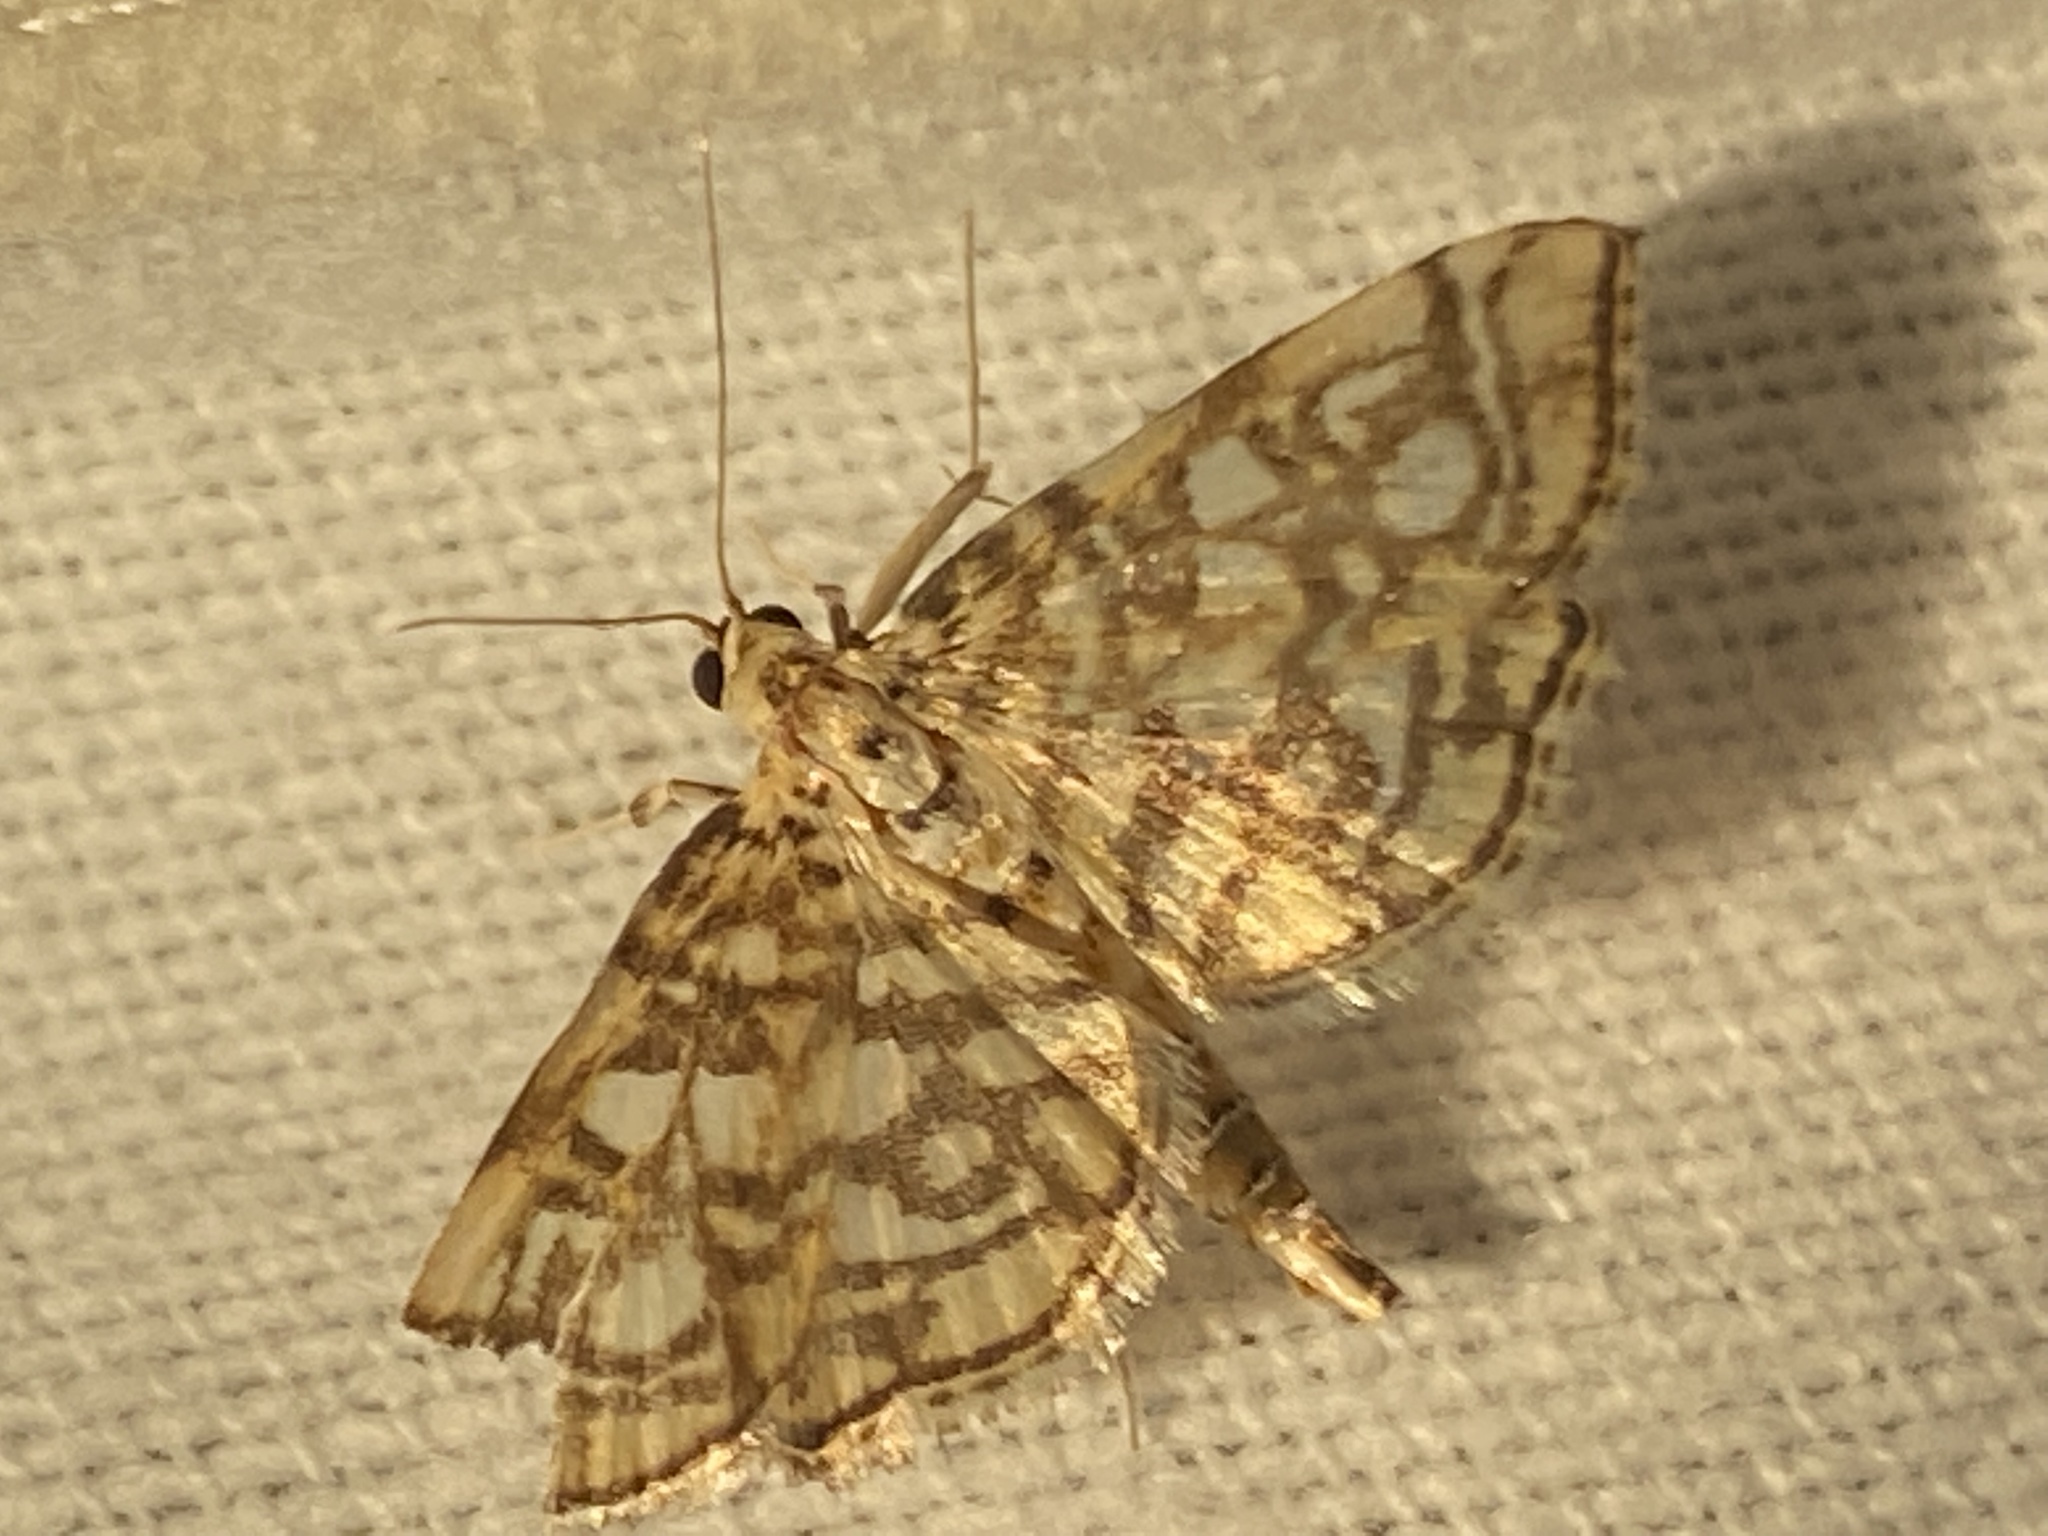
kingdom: Animalia
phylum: Arthropoda
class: Insecta
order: Lepidoptera
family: Crambidae
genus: Lygropia
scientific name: Lygropia rivulalis
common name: Bog lygropia moth
